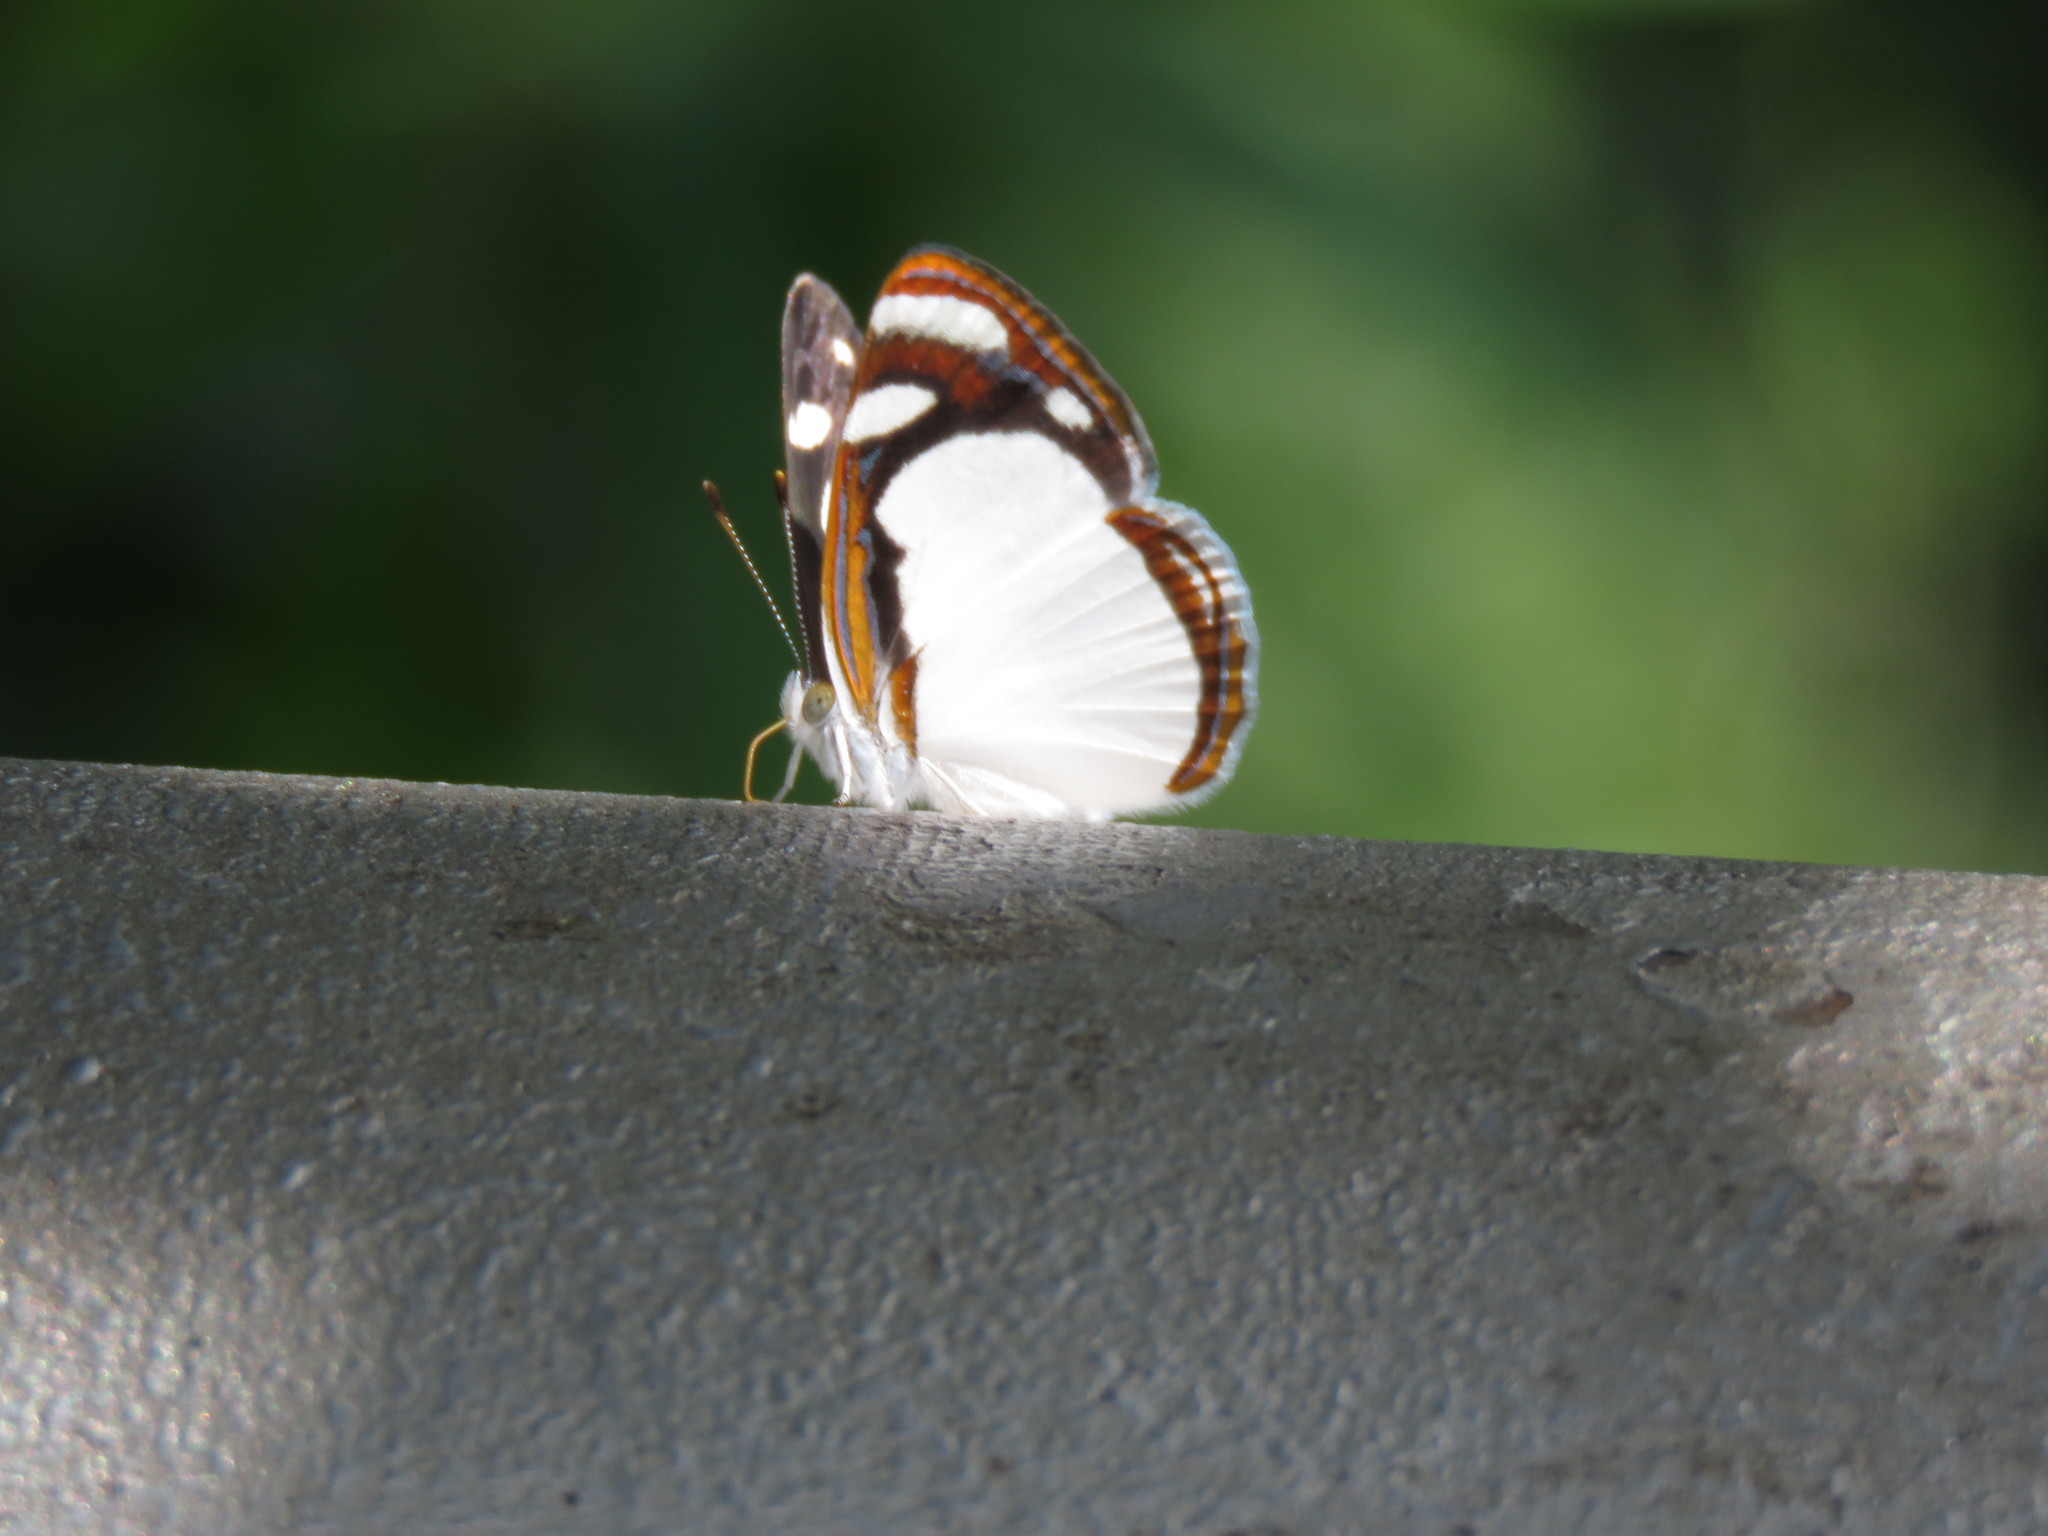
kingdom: Animalia
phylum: Arthropoda
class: Insecta
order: Lepidoptera
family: Nymphalidae
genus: Dynamine
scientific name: Dynamine agacles
